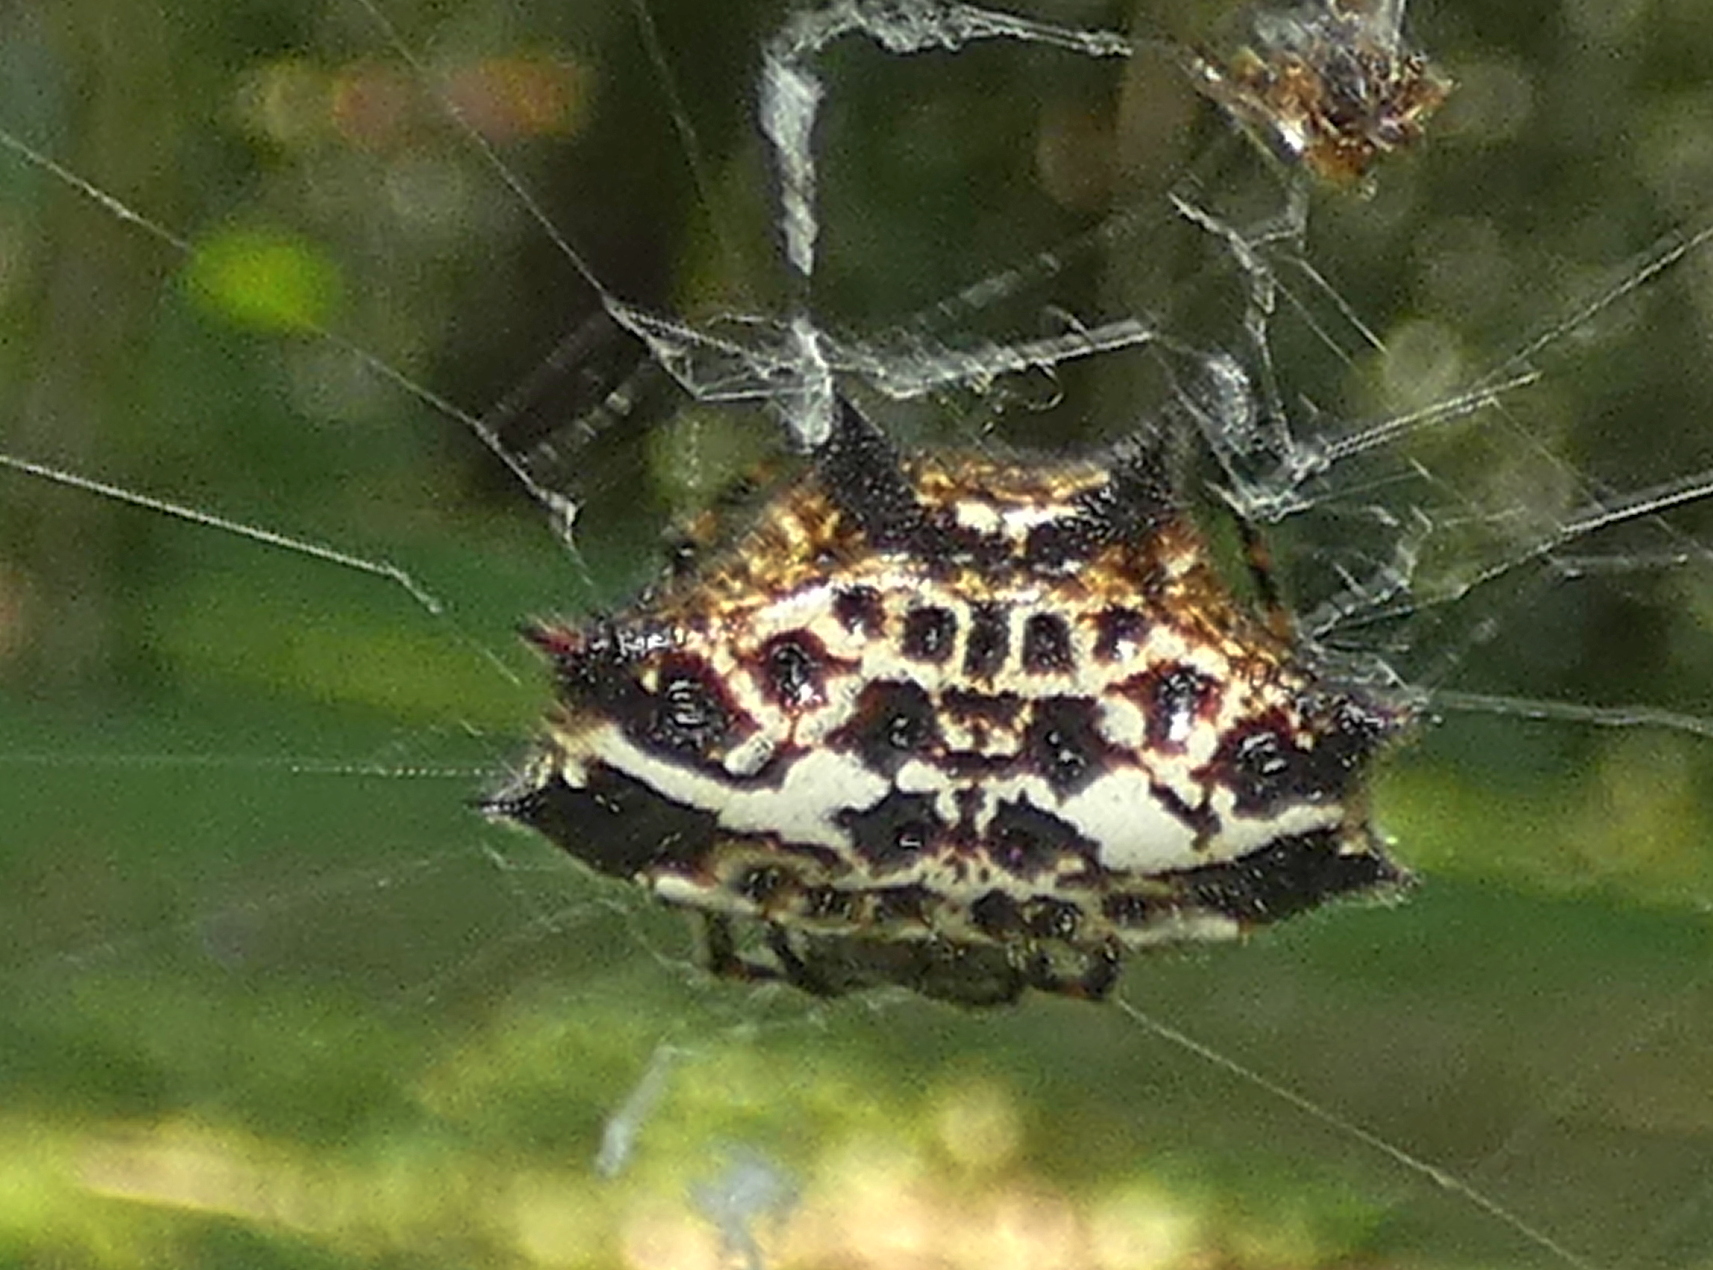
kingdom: Animalia
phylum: Arthropoda
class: Arachnida
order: Araneae
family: Araneidae
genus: Gasteracantha
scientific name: Gasteracantha cancriformis
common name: Orb weavers
